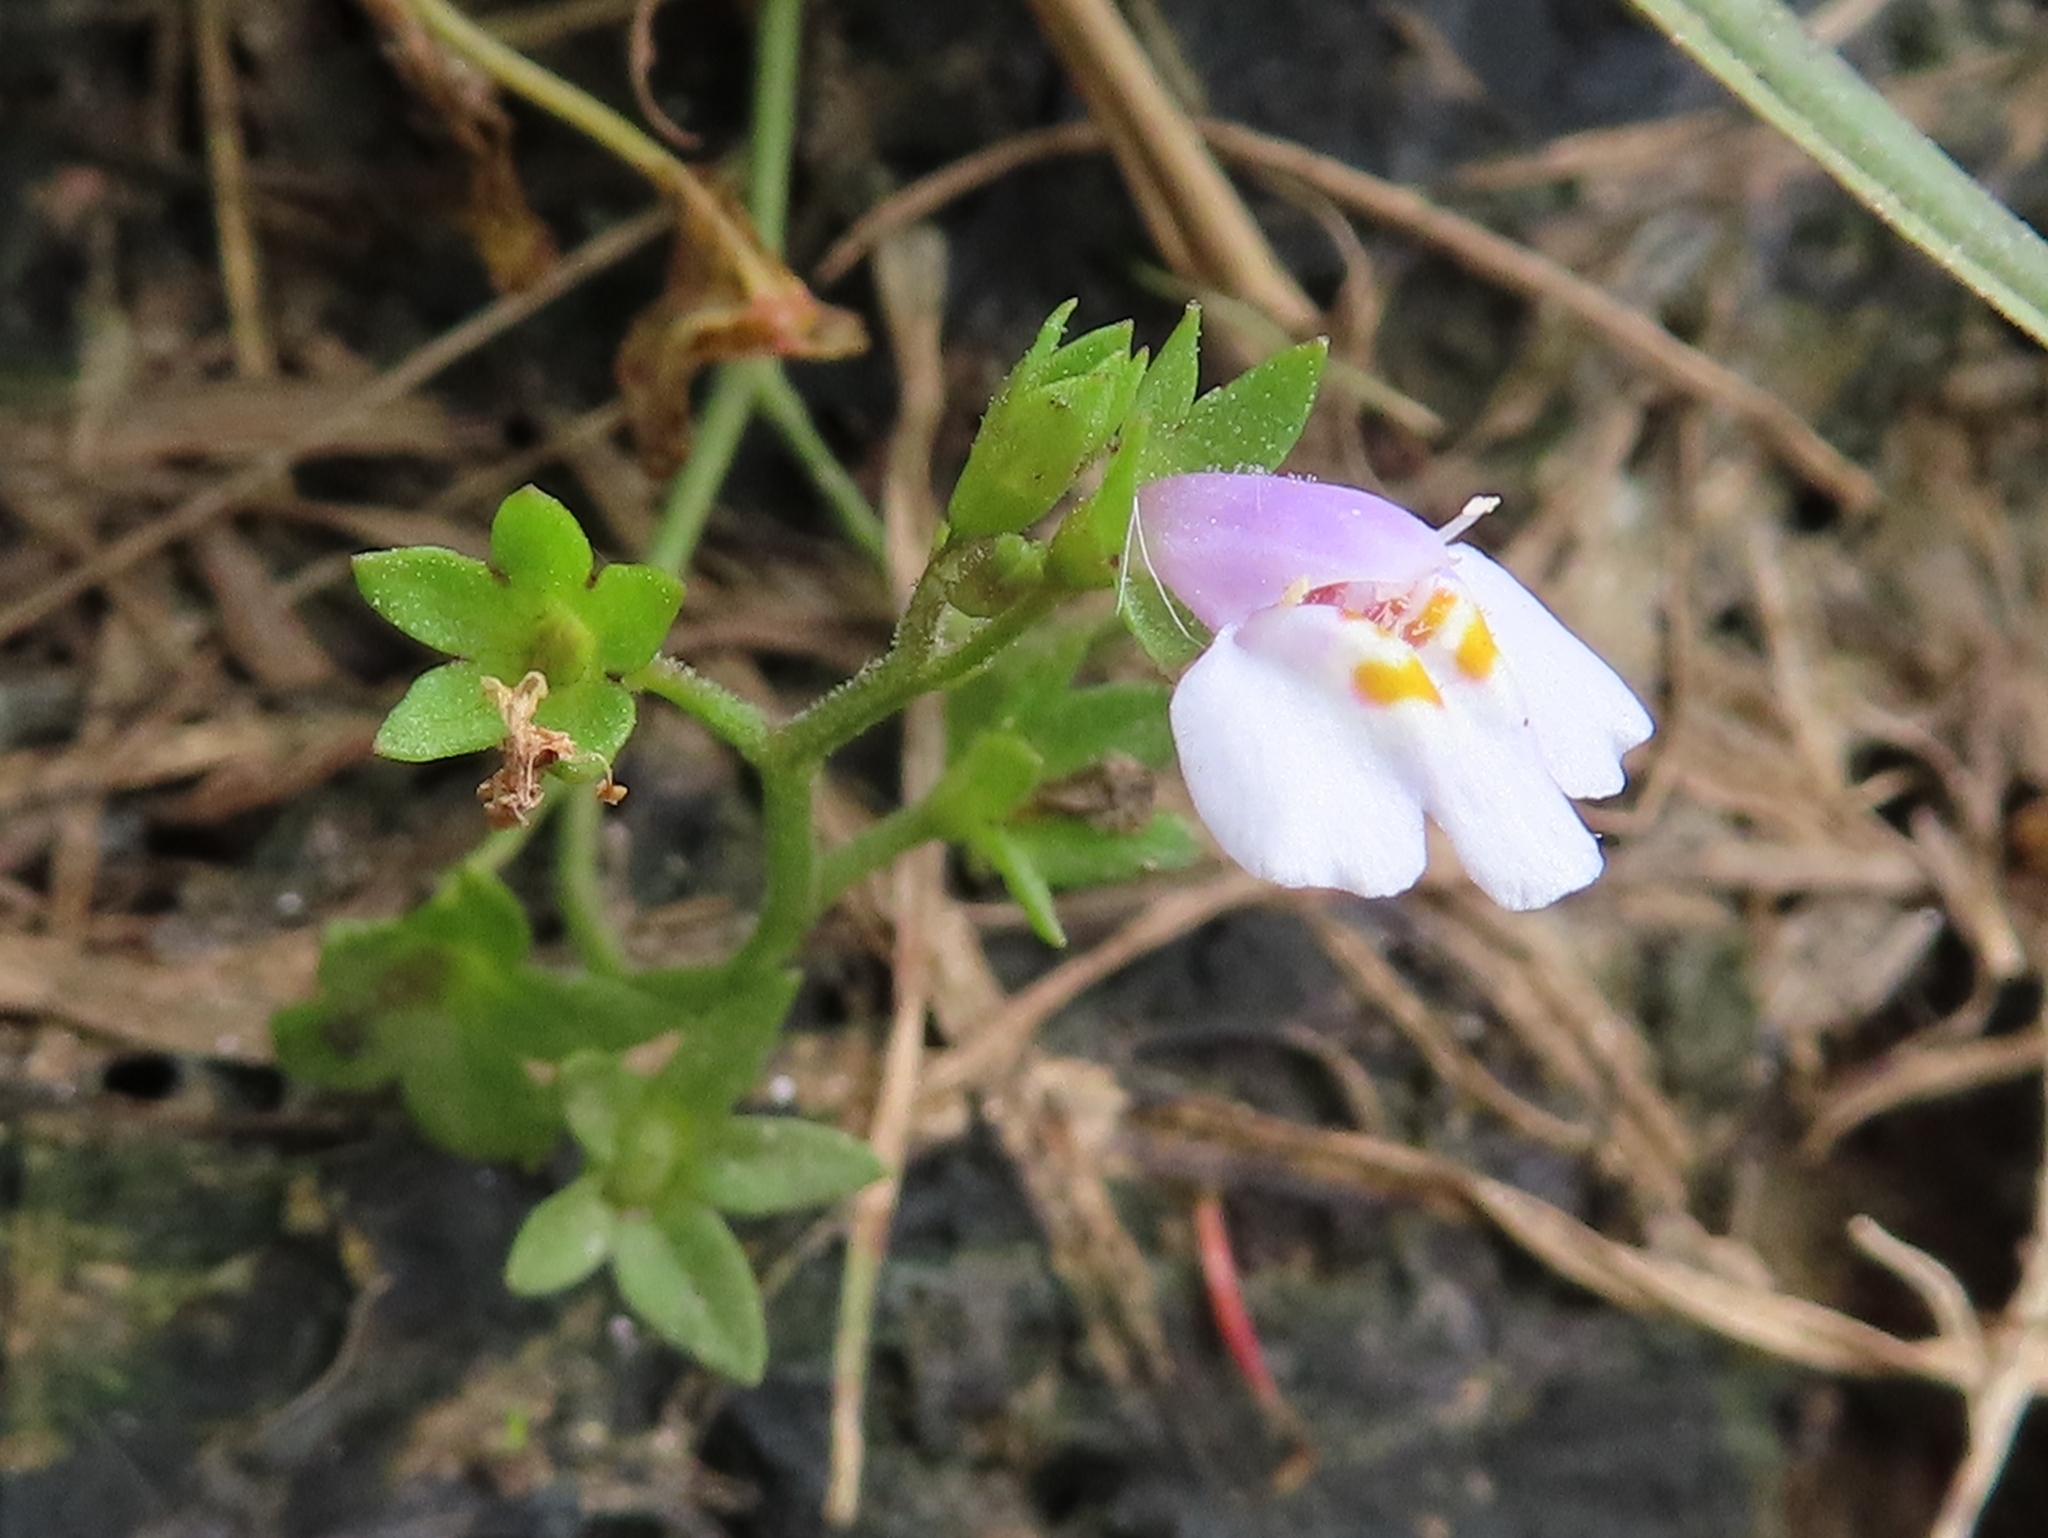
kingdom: Plantae
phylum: Tracheophyta
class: Magnoliopsida
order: Lamiales
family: Mazaceae
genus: Mazus
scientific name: Mazus pumilus
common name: Japanese mazus
